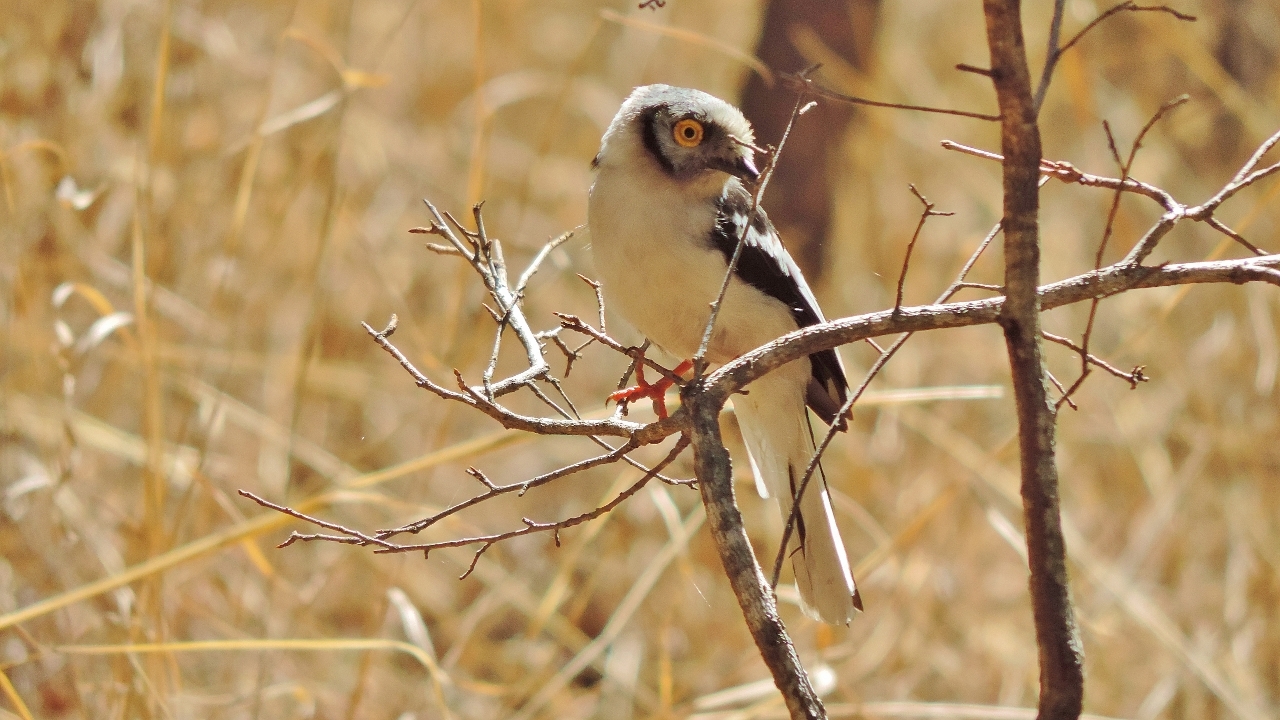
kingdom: Animalia
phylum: Chordata
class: Aves
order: Passeriformes
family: Prionopidae
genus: Prionops
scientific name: Prionops plumatus
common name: White-crested helmetshrike
